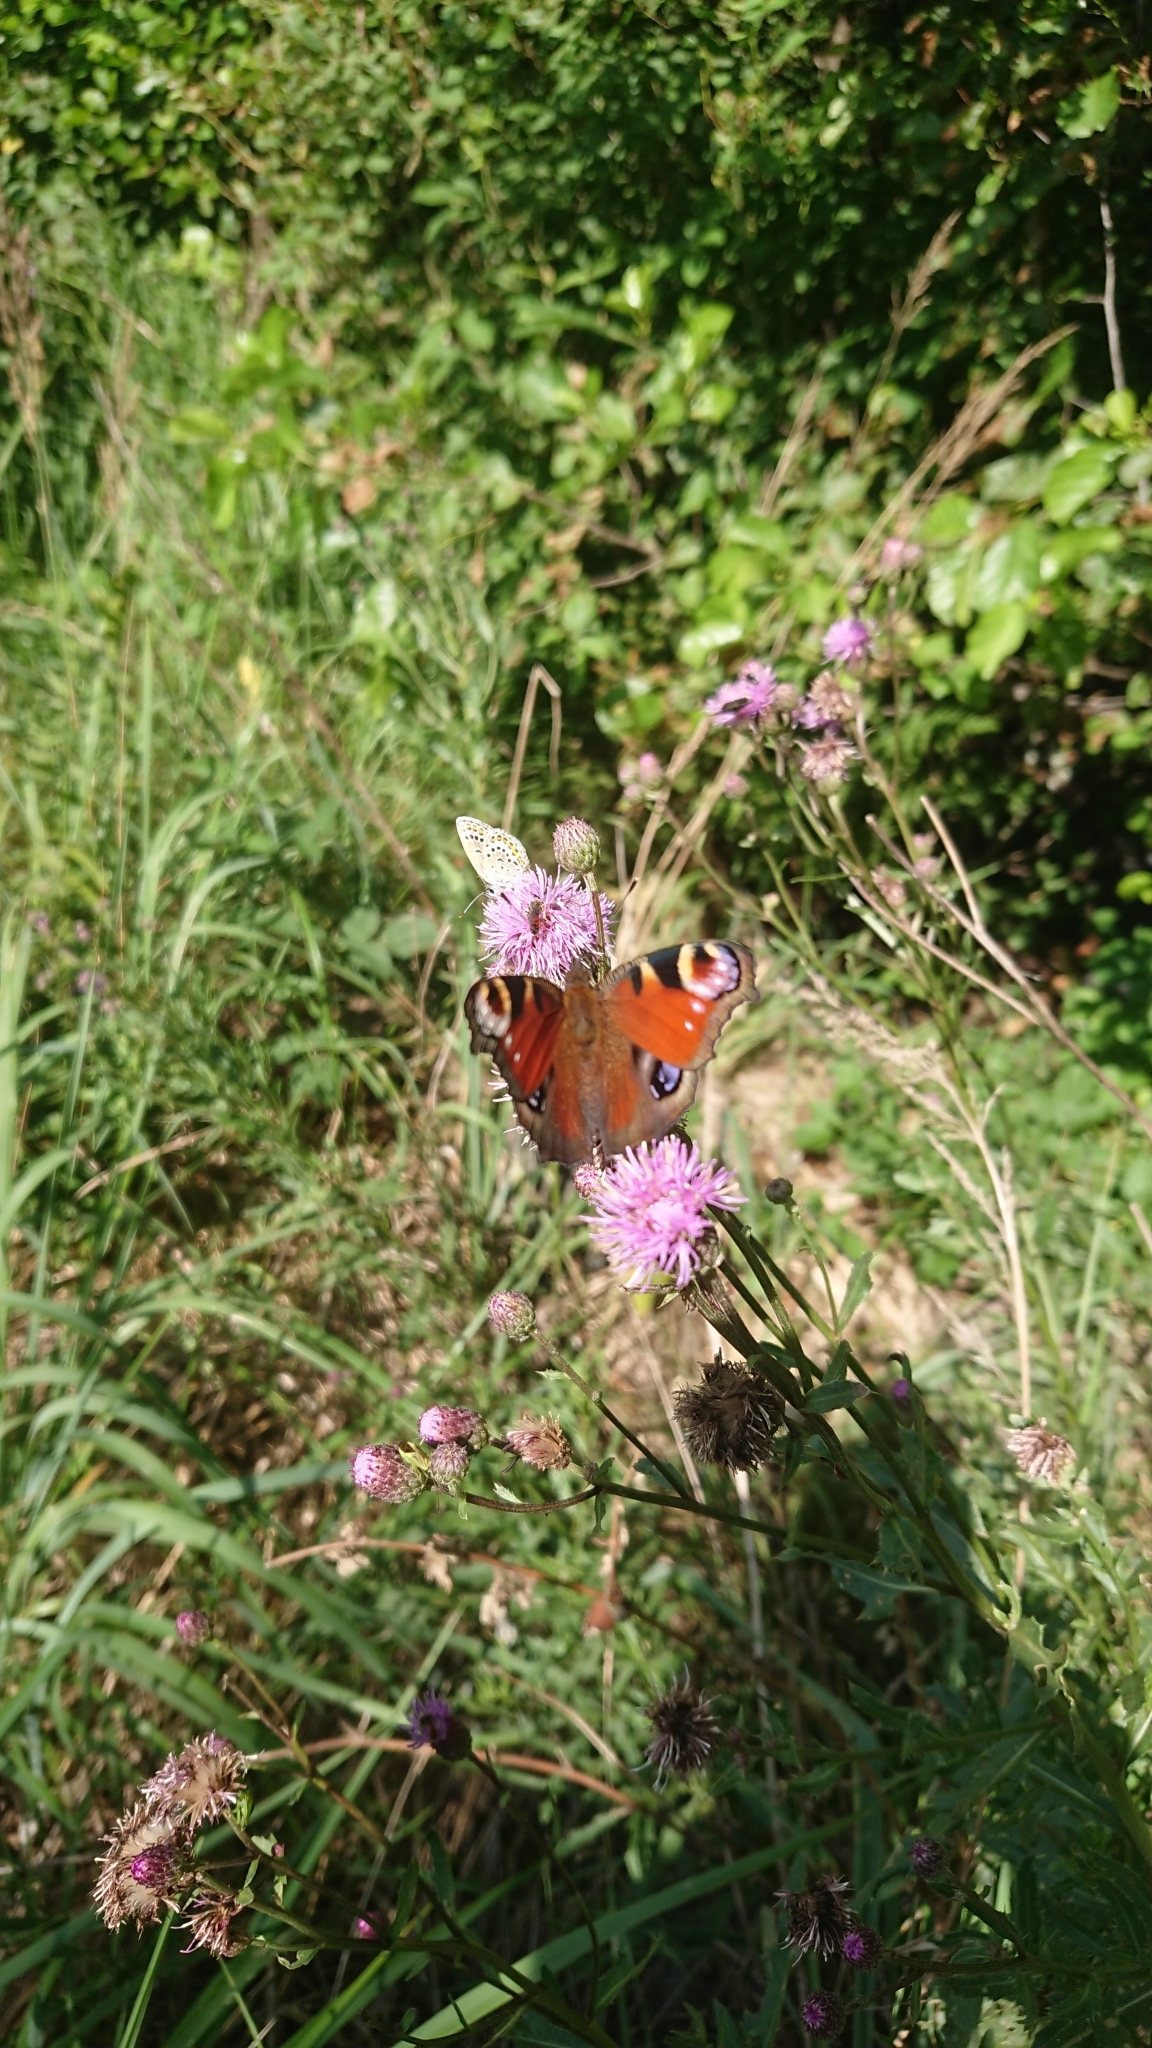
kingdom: Animalia
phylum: Arthropoda
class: Insecta
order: Lepidoptera
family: Nymphalidae
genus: Aglais
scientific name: Aglais io
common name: Peacock
